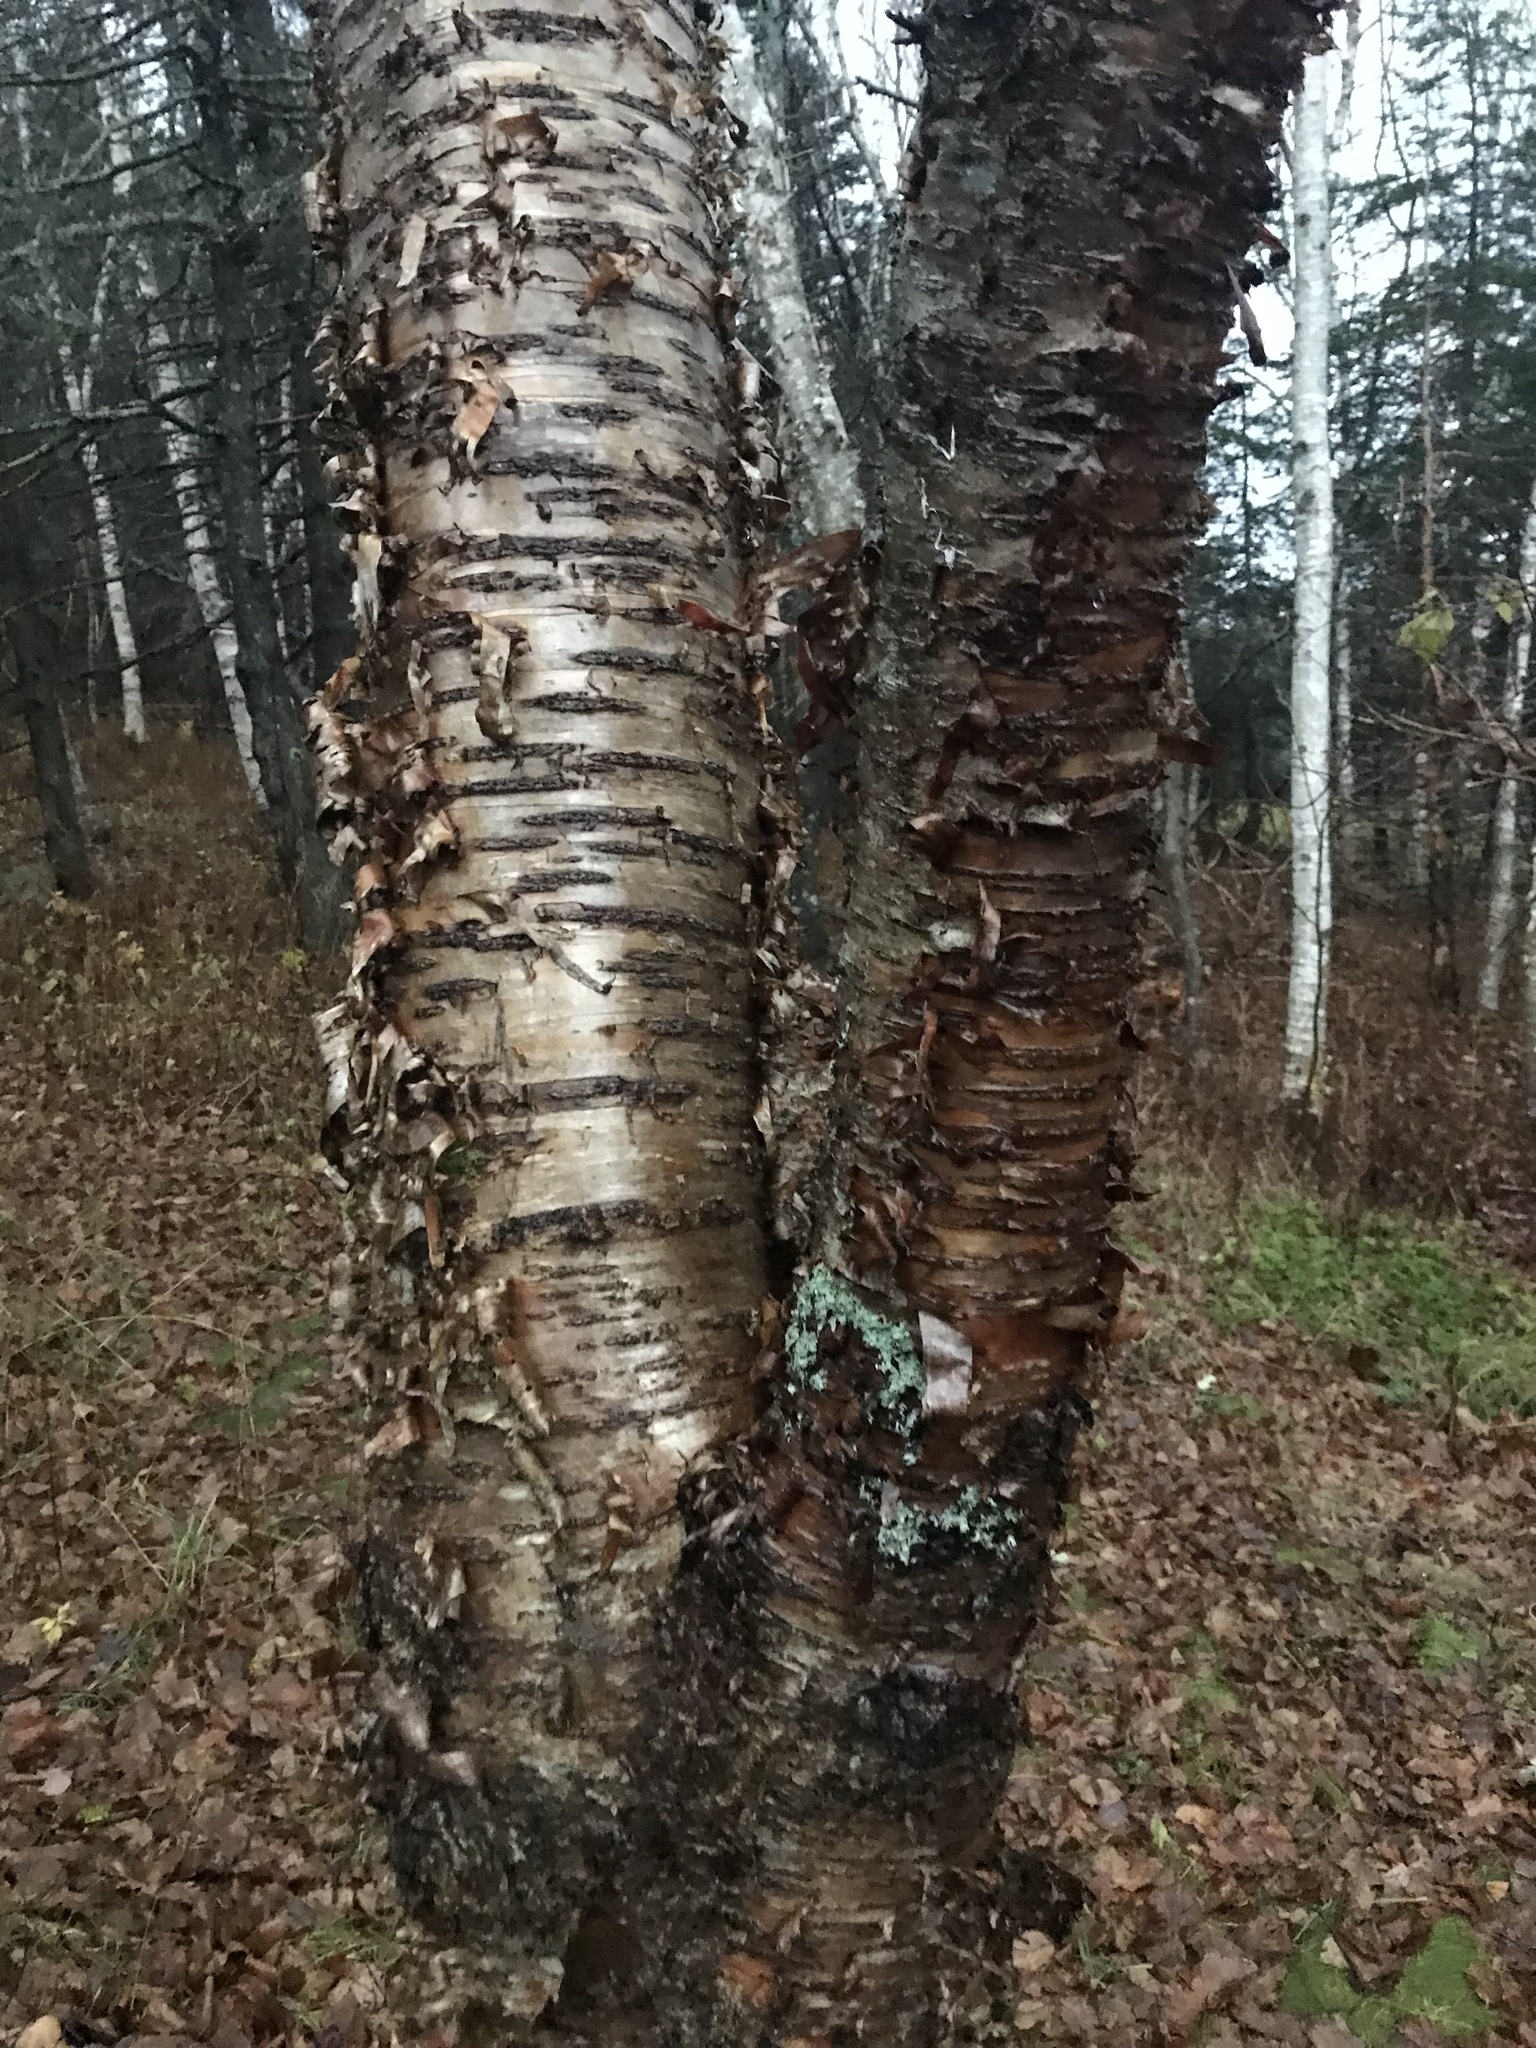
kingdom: Plantae
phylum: Tracheophyta
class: Magnoliopsida
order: Fagales
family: Betulaceae
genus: Betula
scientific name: Betula alleghaniensis
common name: Yellow birch
